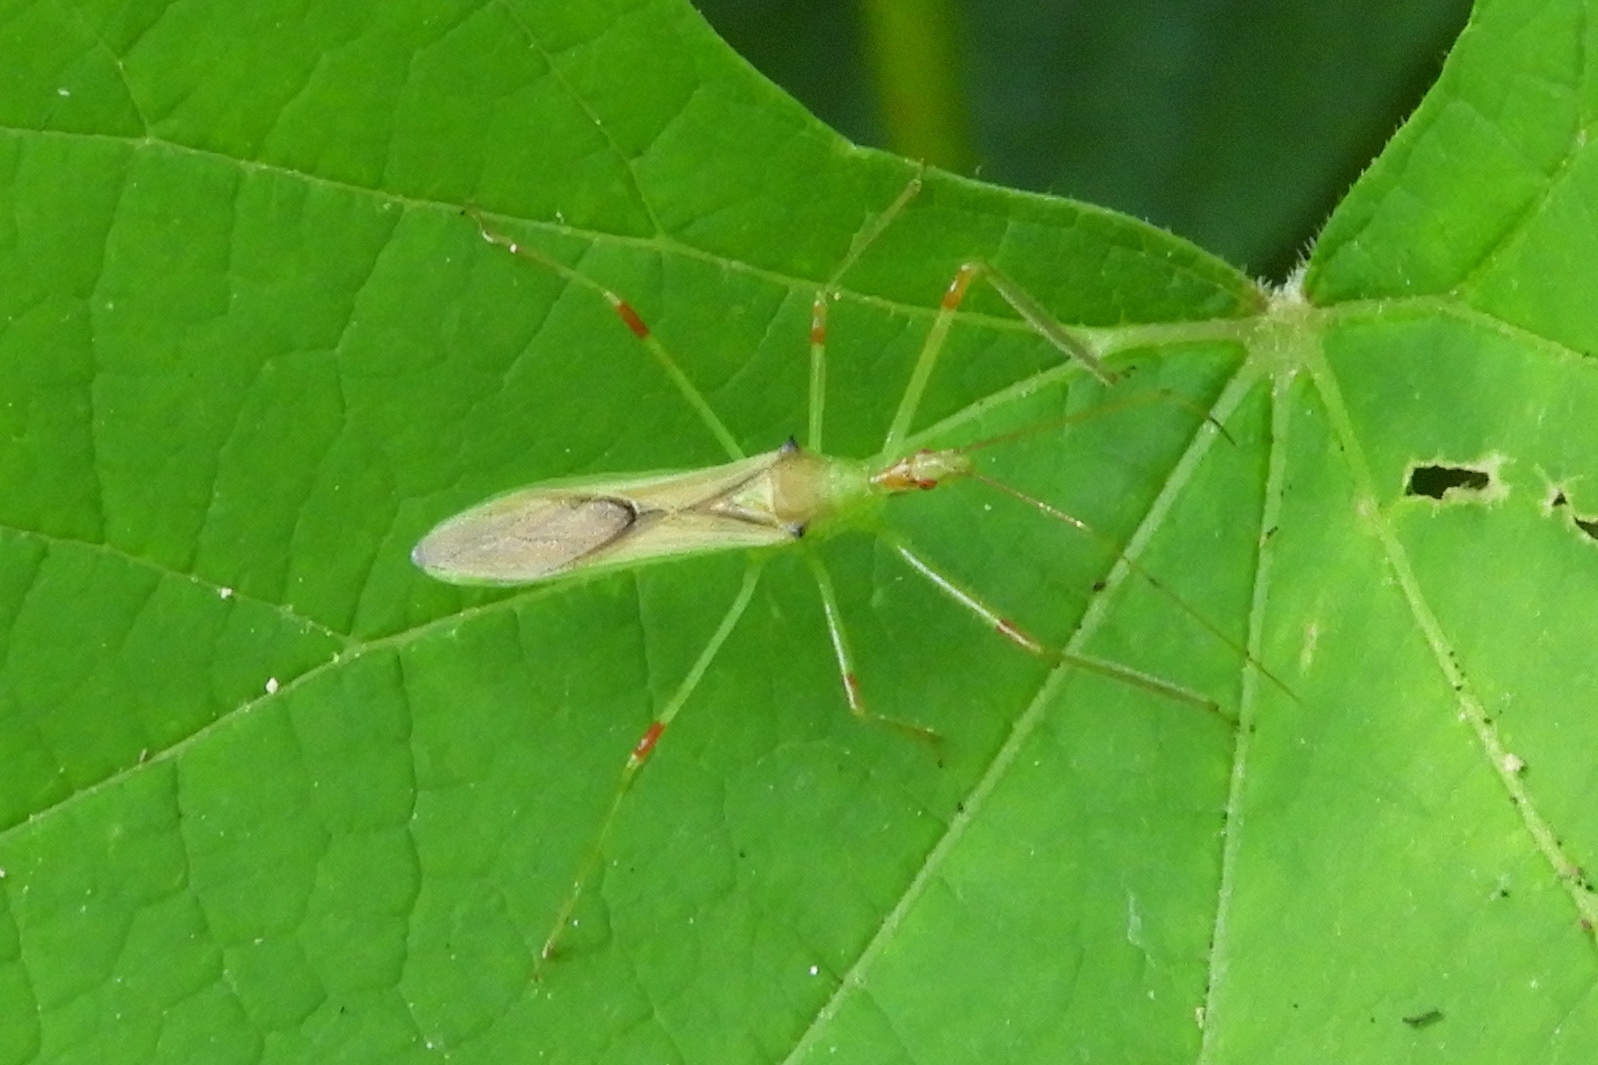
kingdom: Animalia
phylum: Arthropoda
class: Insecta
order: Hemiptera
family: Reduviidae
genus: Zelus
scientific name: Zelus luridus
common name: Pale green assassin bug
